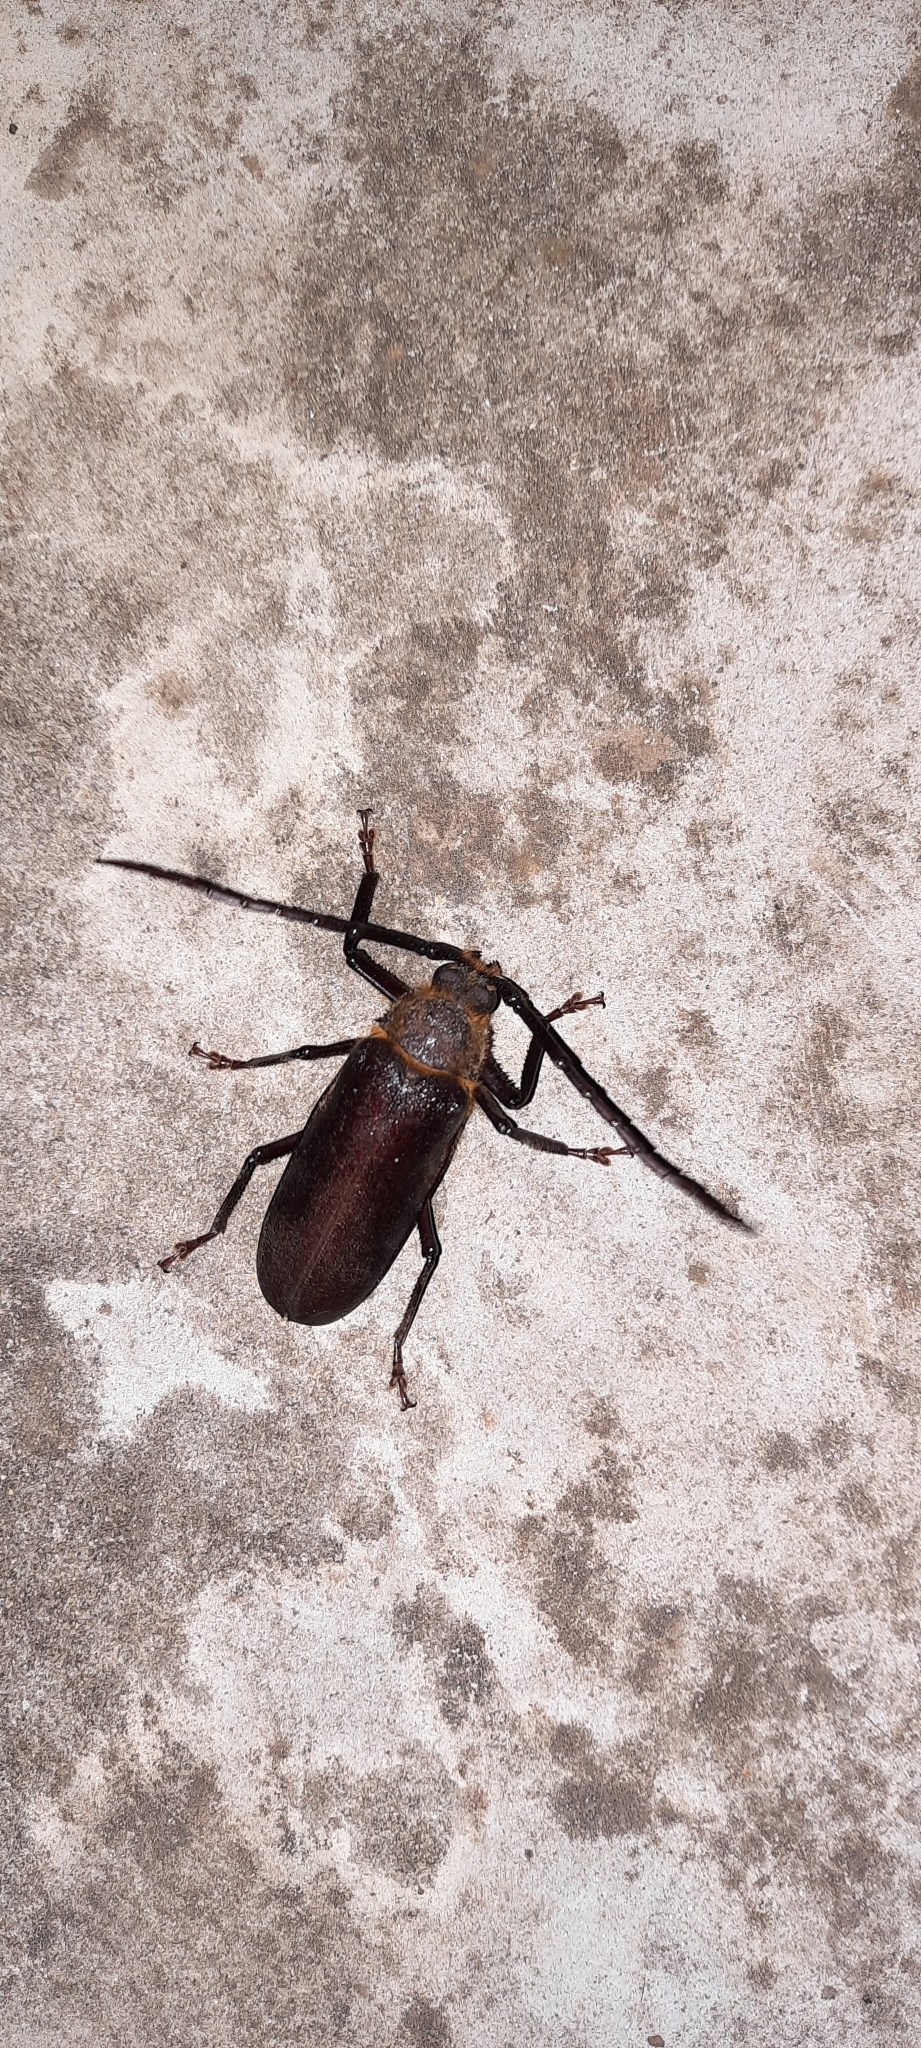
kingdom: Animalia
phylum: Arthropoda
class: Insecta
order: Coleoptera
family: Cerambycidae
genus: Paramacrotoma
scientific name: Paramacrotoma dimidiaticornis
